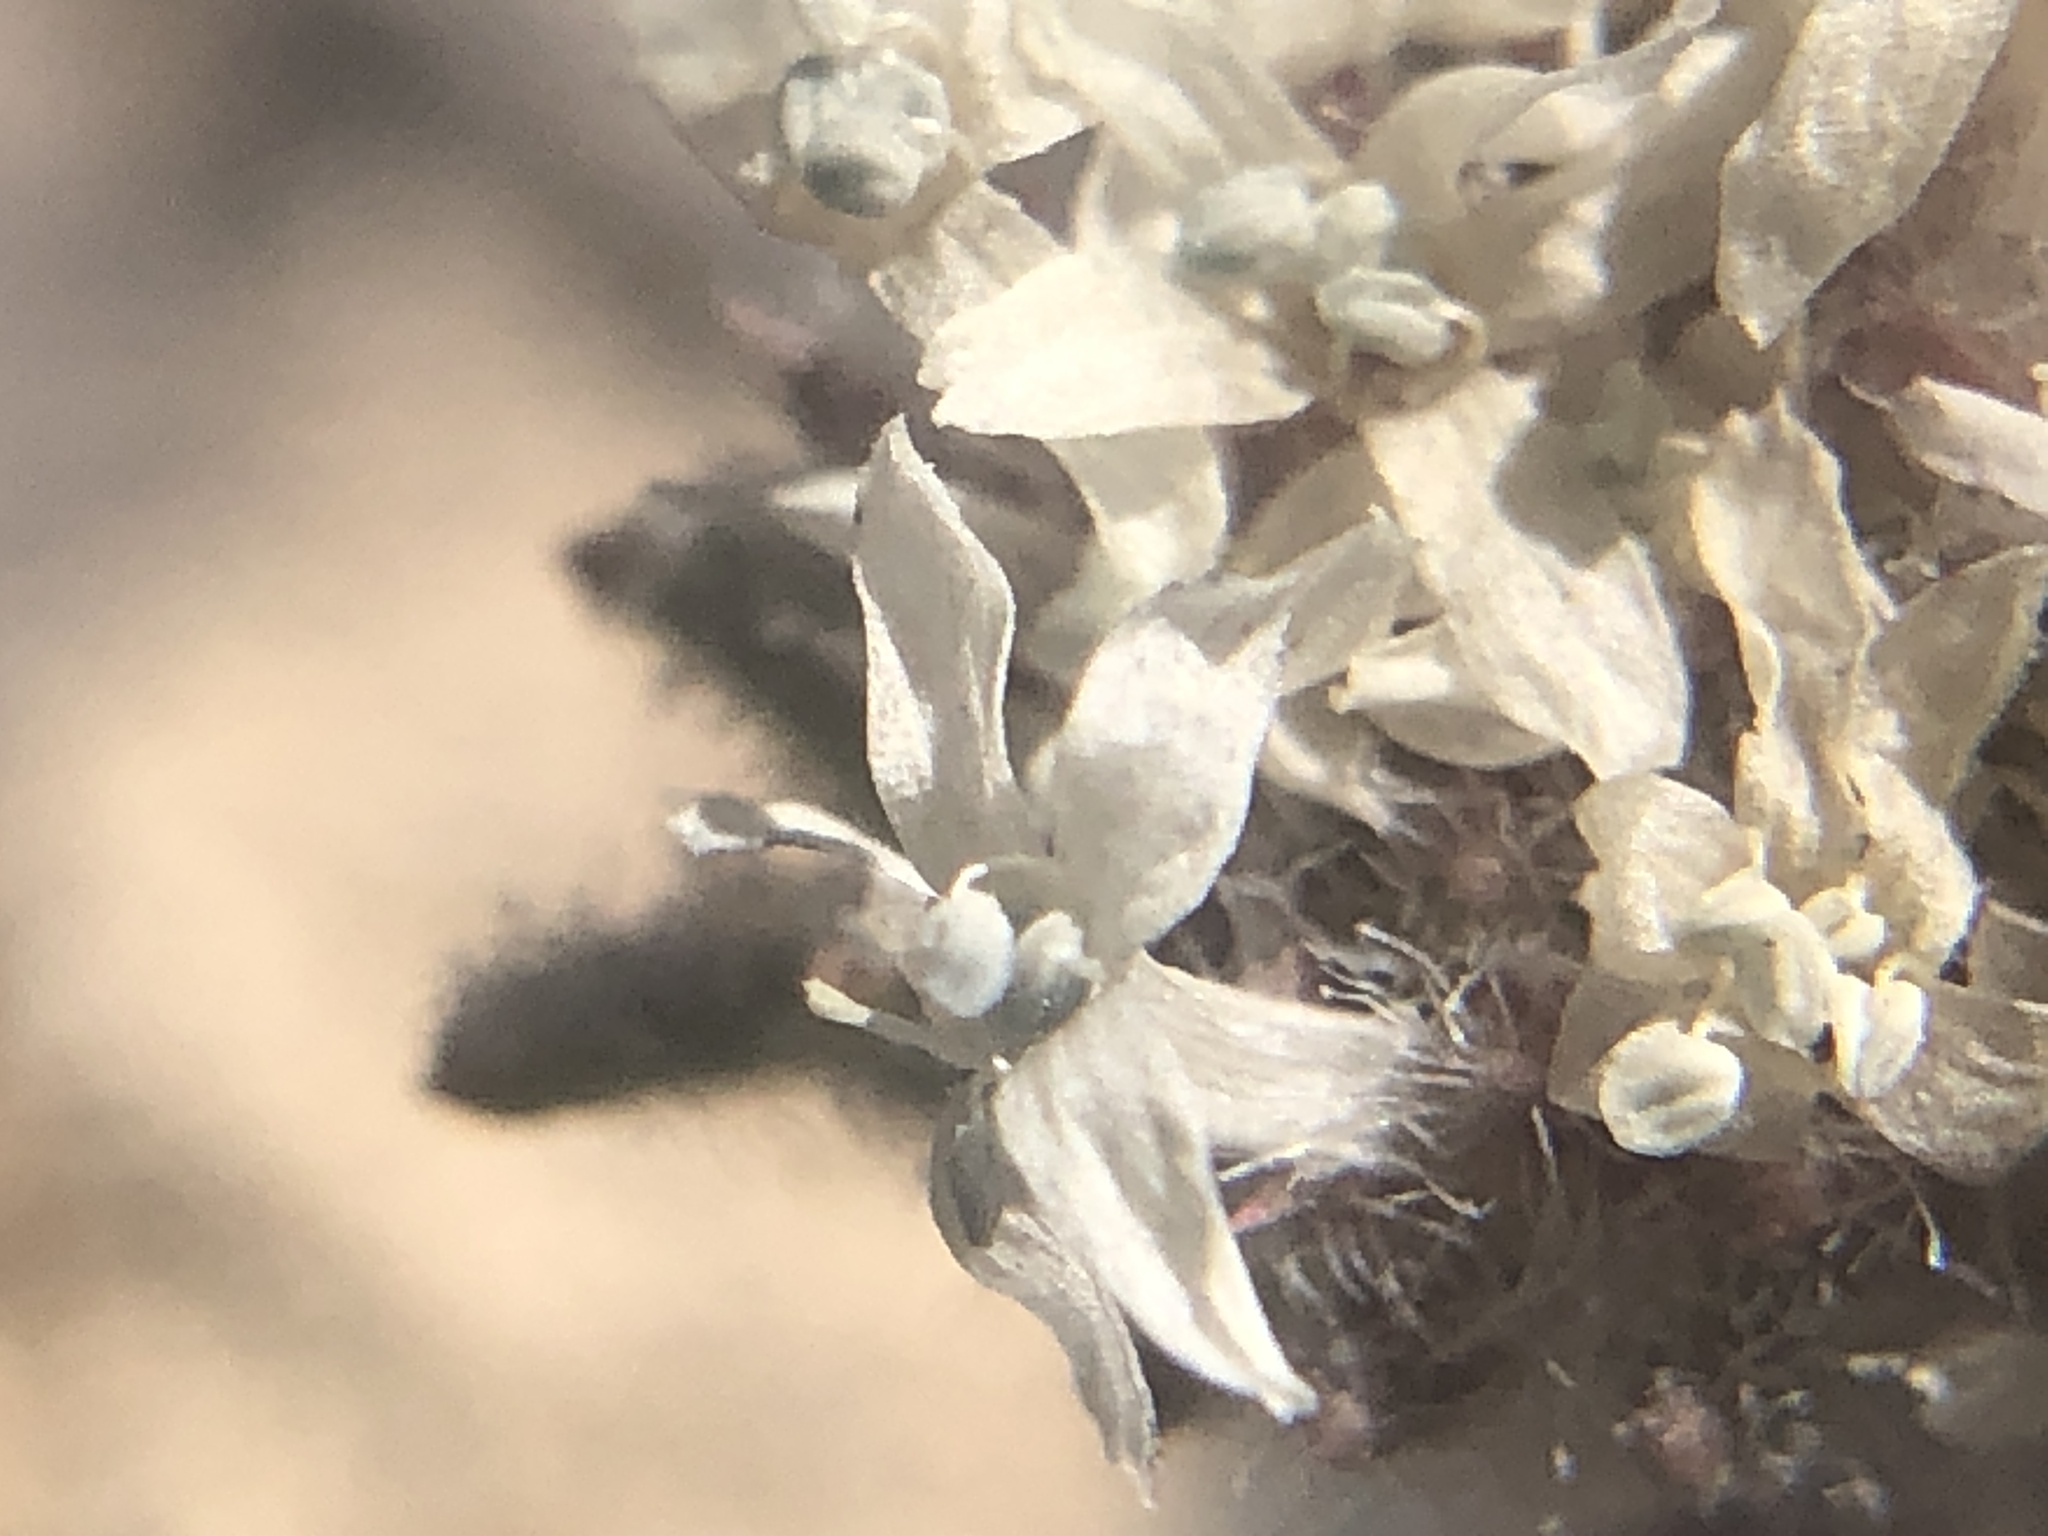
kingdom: Plantae
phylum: Tracheophyta
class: Magnoliopsida
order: Ericales
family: Polemoniaceae
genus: Ipomopsis
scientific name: Ipomopsis congesta
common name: Ball-head gilia
